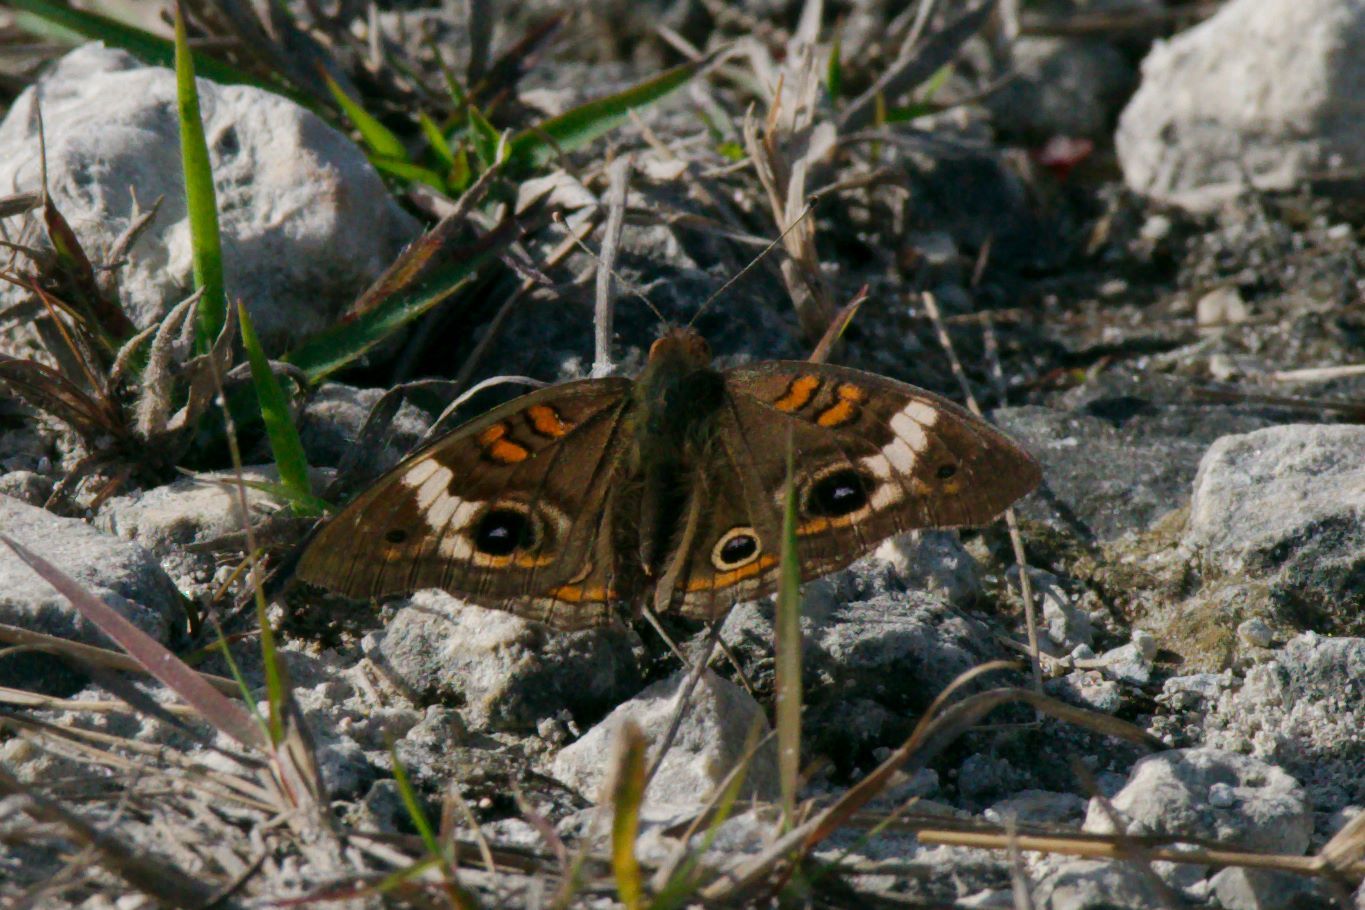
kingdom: Animalia
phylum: Arthropoda
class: Insecta
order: Lepidoptera
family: Nymphalidae
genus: Junonia
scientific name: Junonia coenia
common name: Common buckeye
